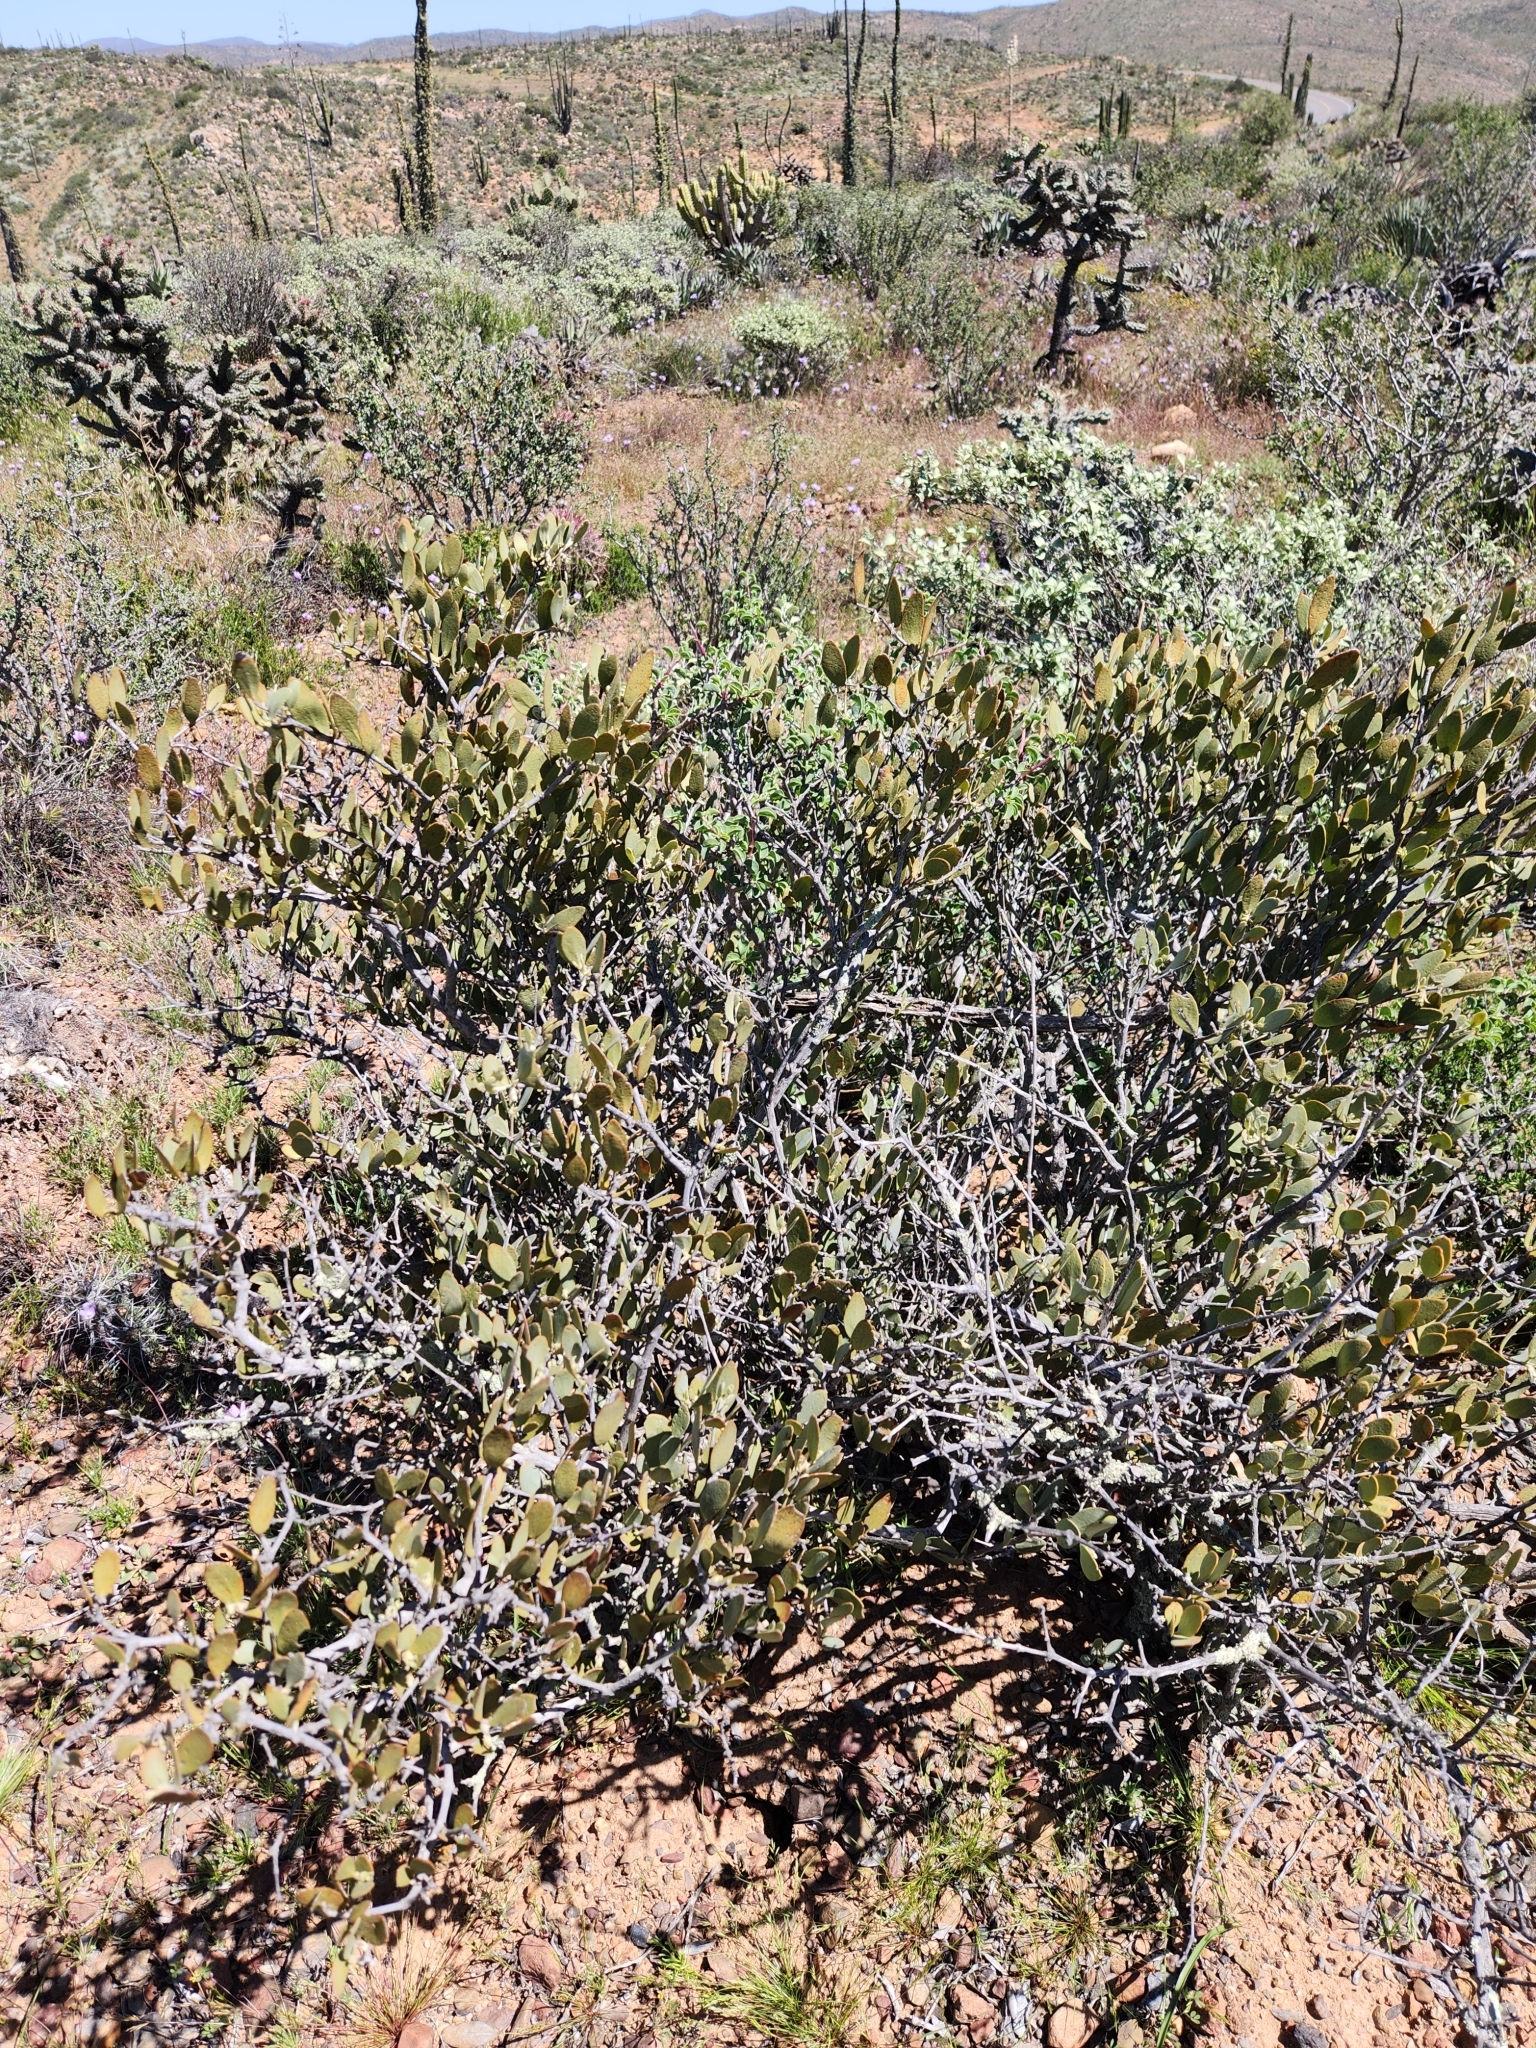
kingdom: Plantae
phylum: Tracheophyta
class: Magnoliopsida
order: Caryophyllales
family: Simmondsiaceae
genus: Simmondsia
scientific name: Simmondsia chinensis
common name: Jojoba
